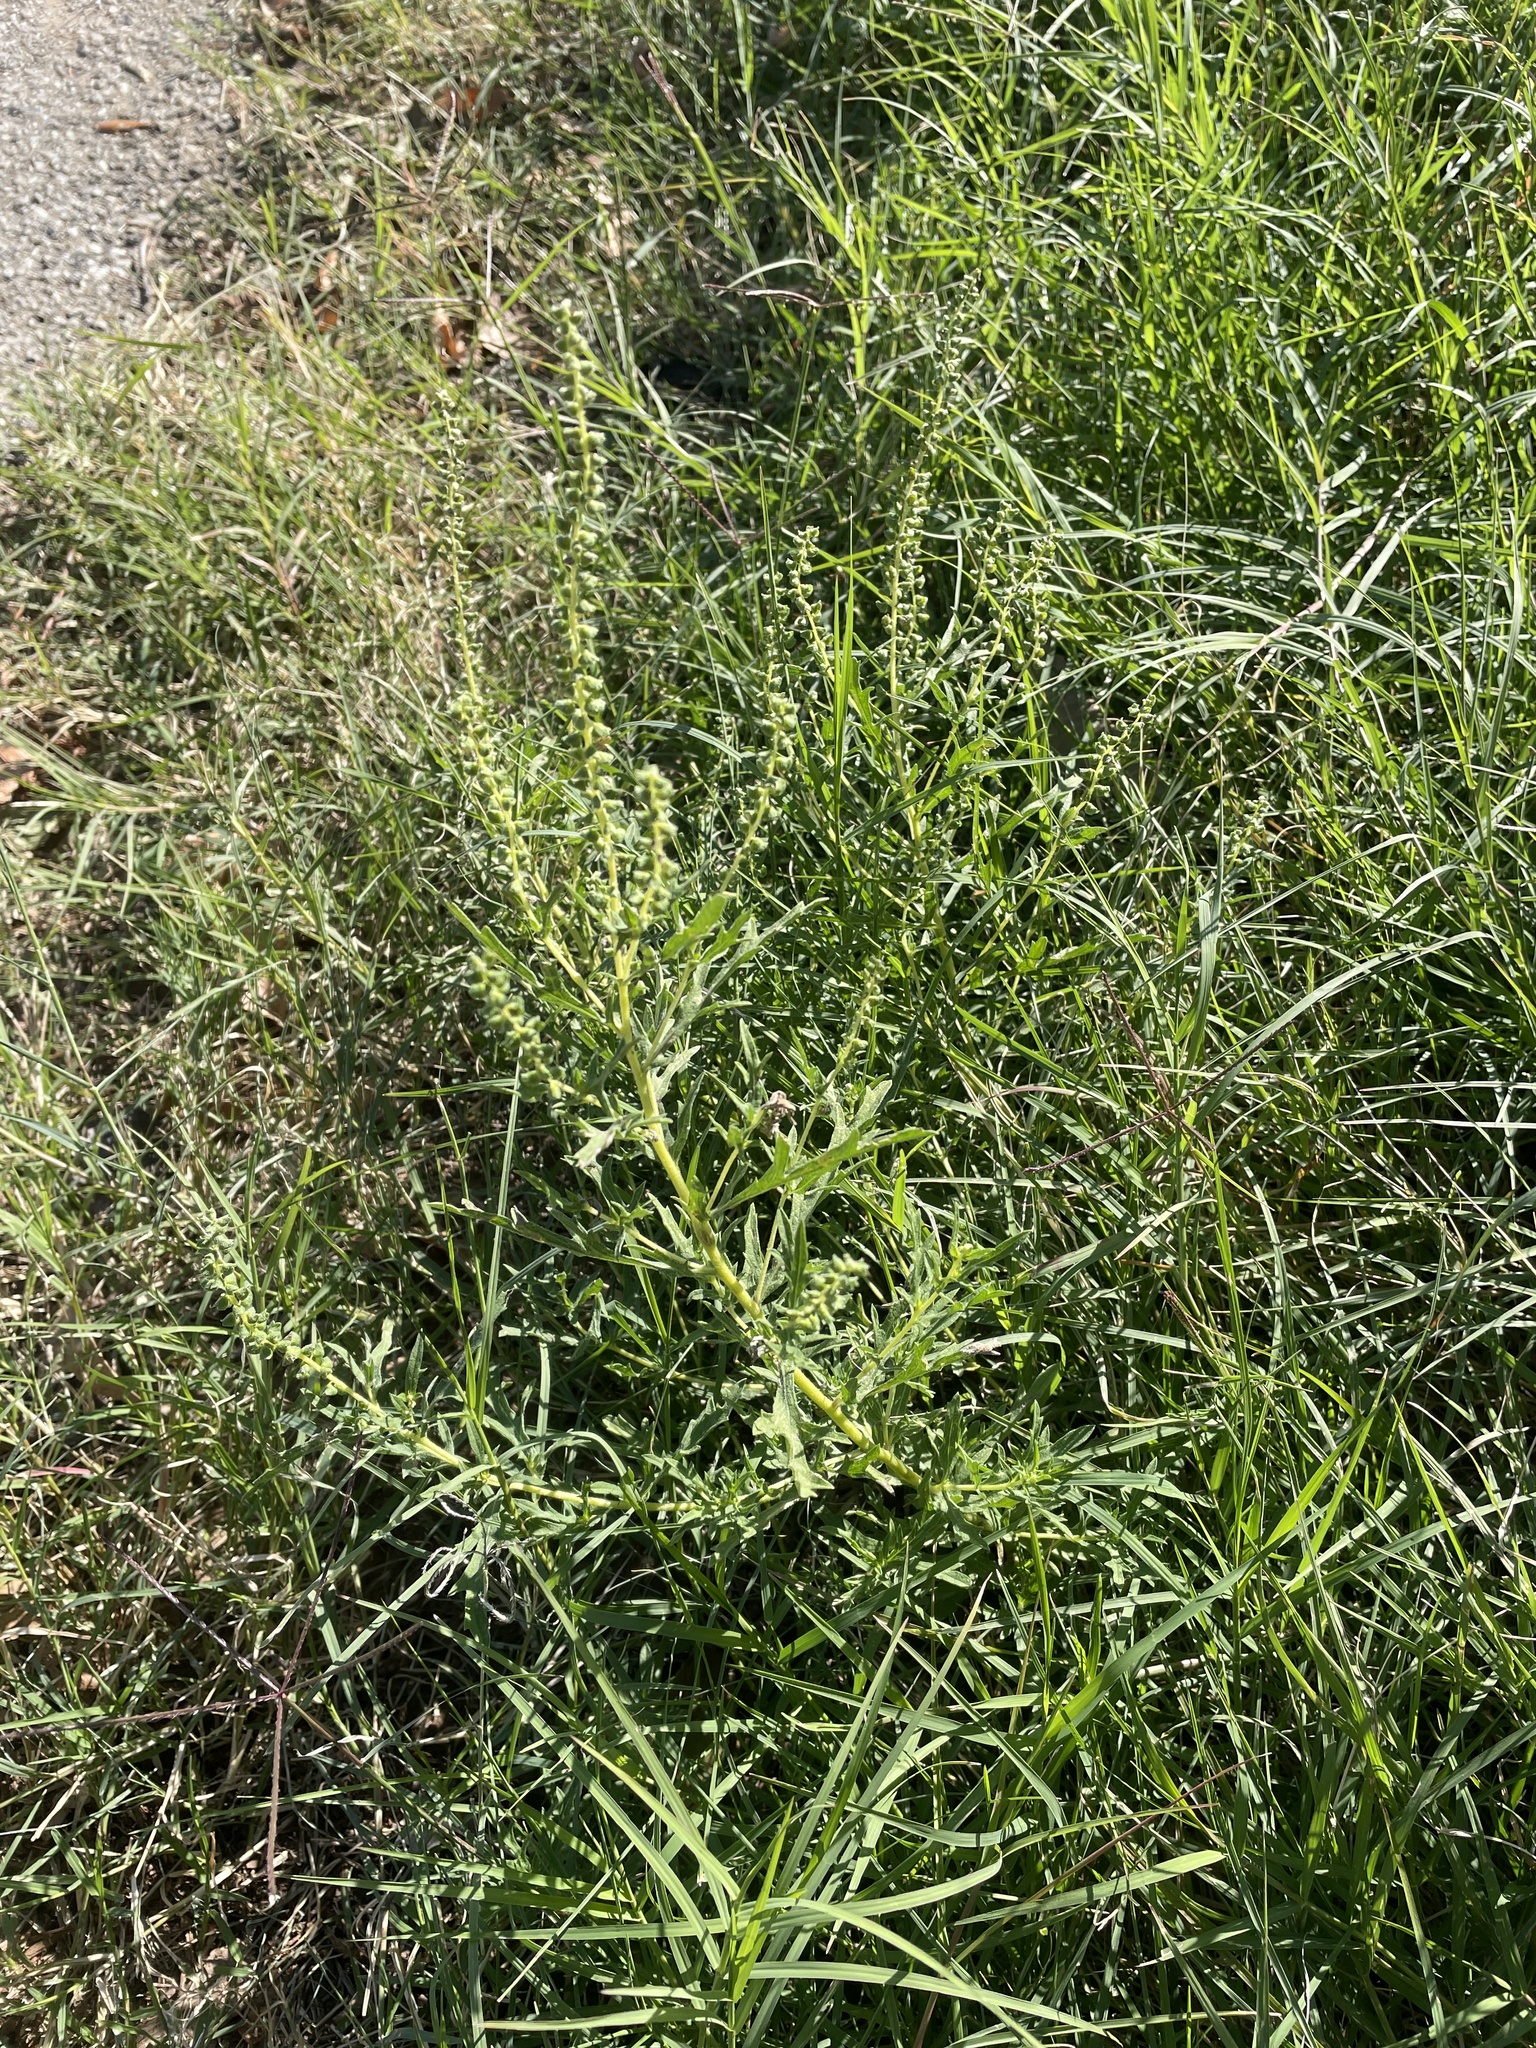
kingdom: Plantae
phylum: Tracheophyta
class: Magnoliopsida
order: Asterales
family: Asteraceae
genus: Ambrosia
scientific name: Ambrosia psilostachya
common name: Perennial ragweed
